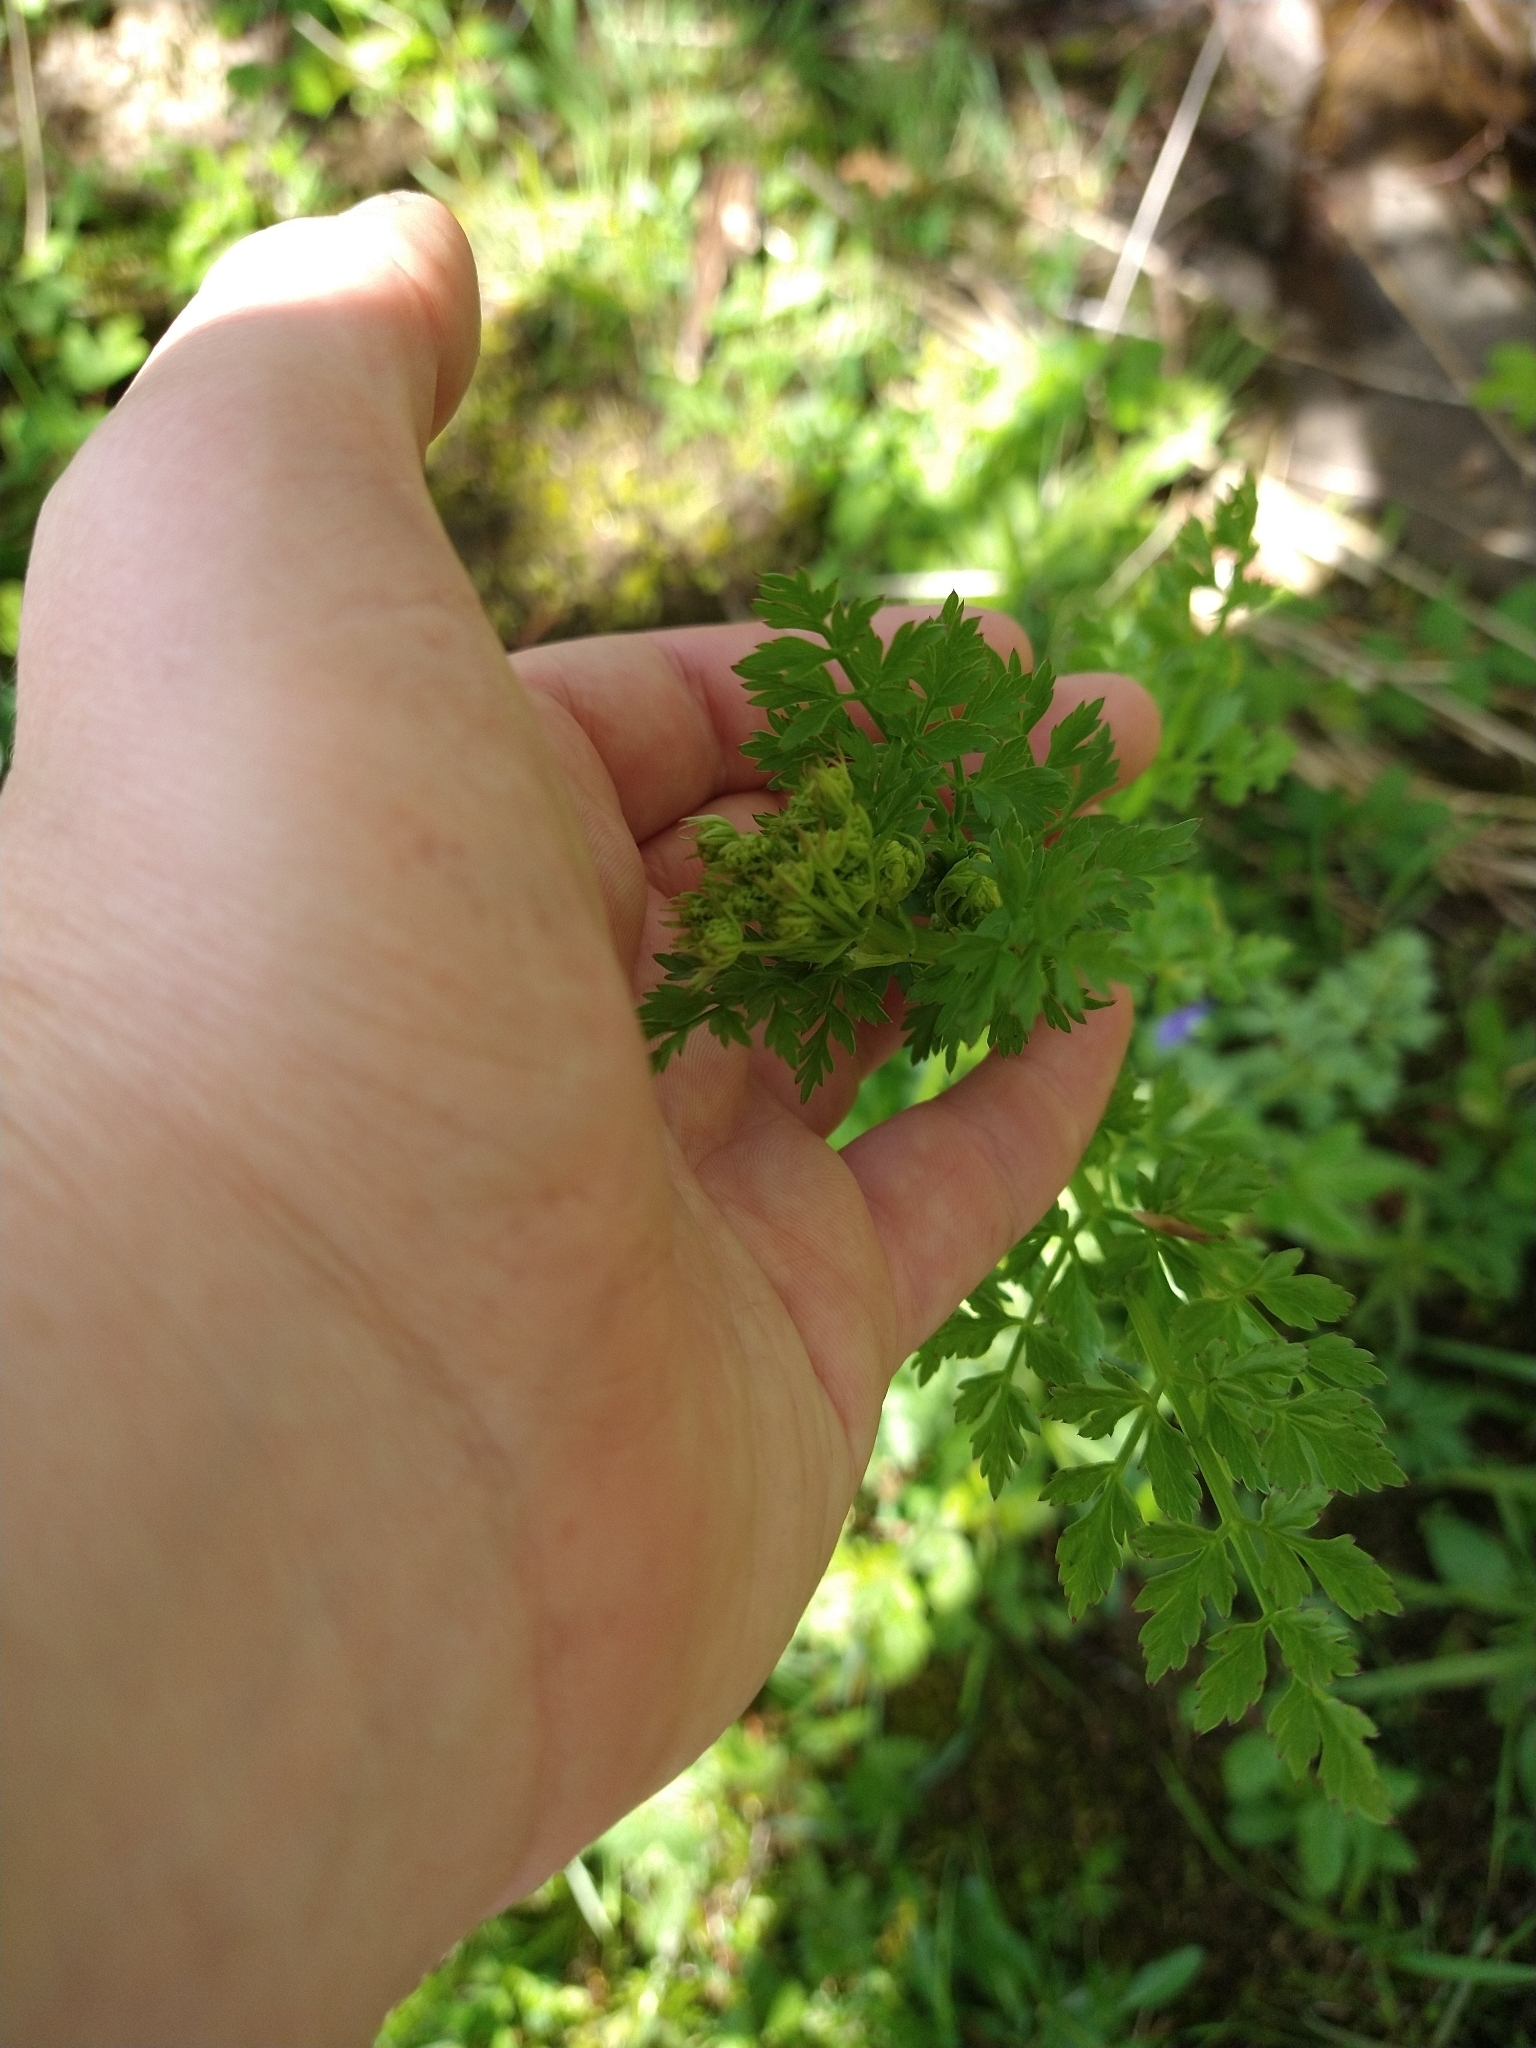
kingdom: Plantae
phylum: Tracheophyta
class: Magnoliopsida
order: Apiales
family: Apiaceae
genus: Oenanthe
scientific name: Oenanthe crocata
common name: Hemlock water-dropwort
